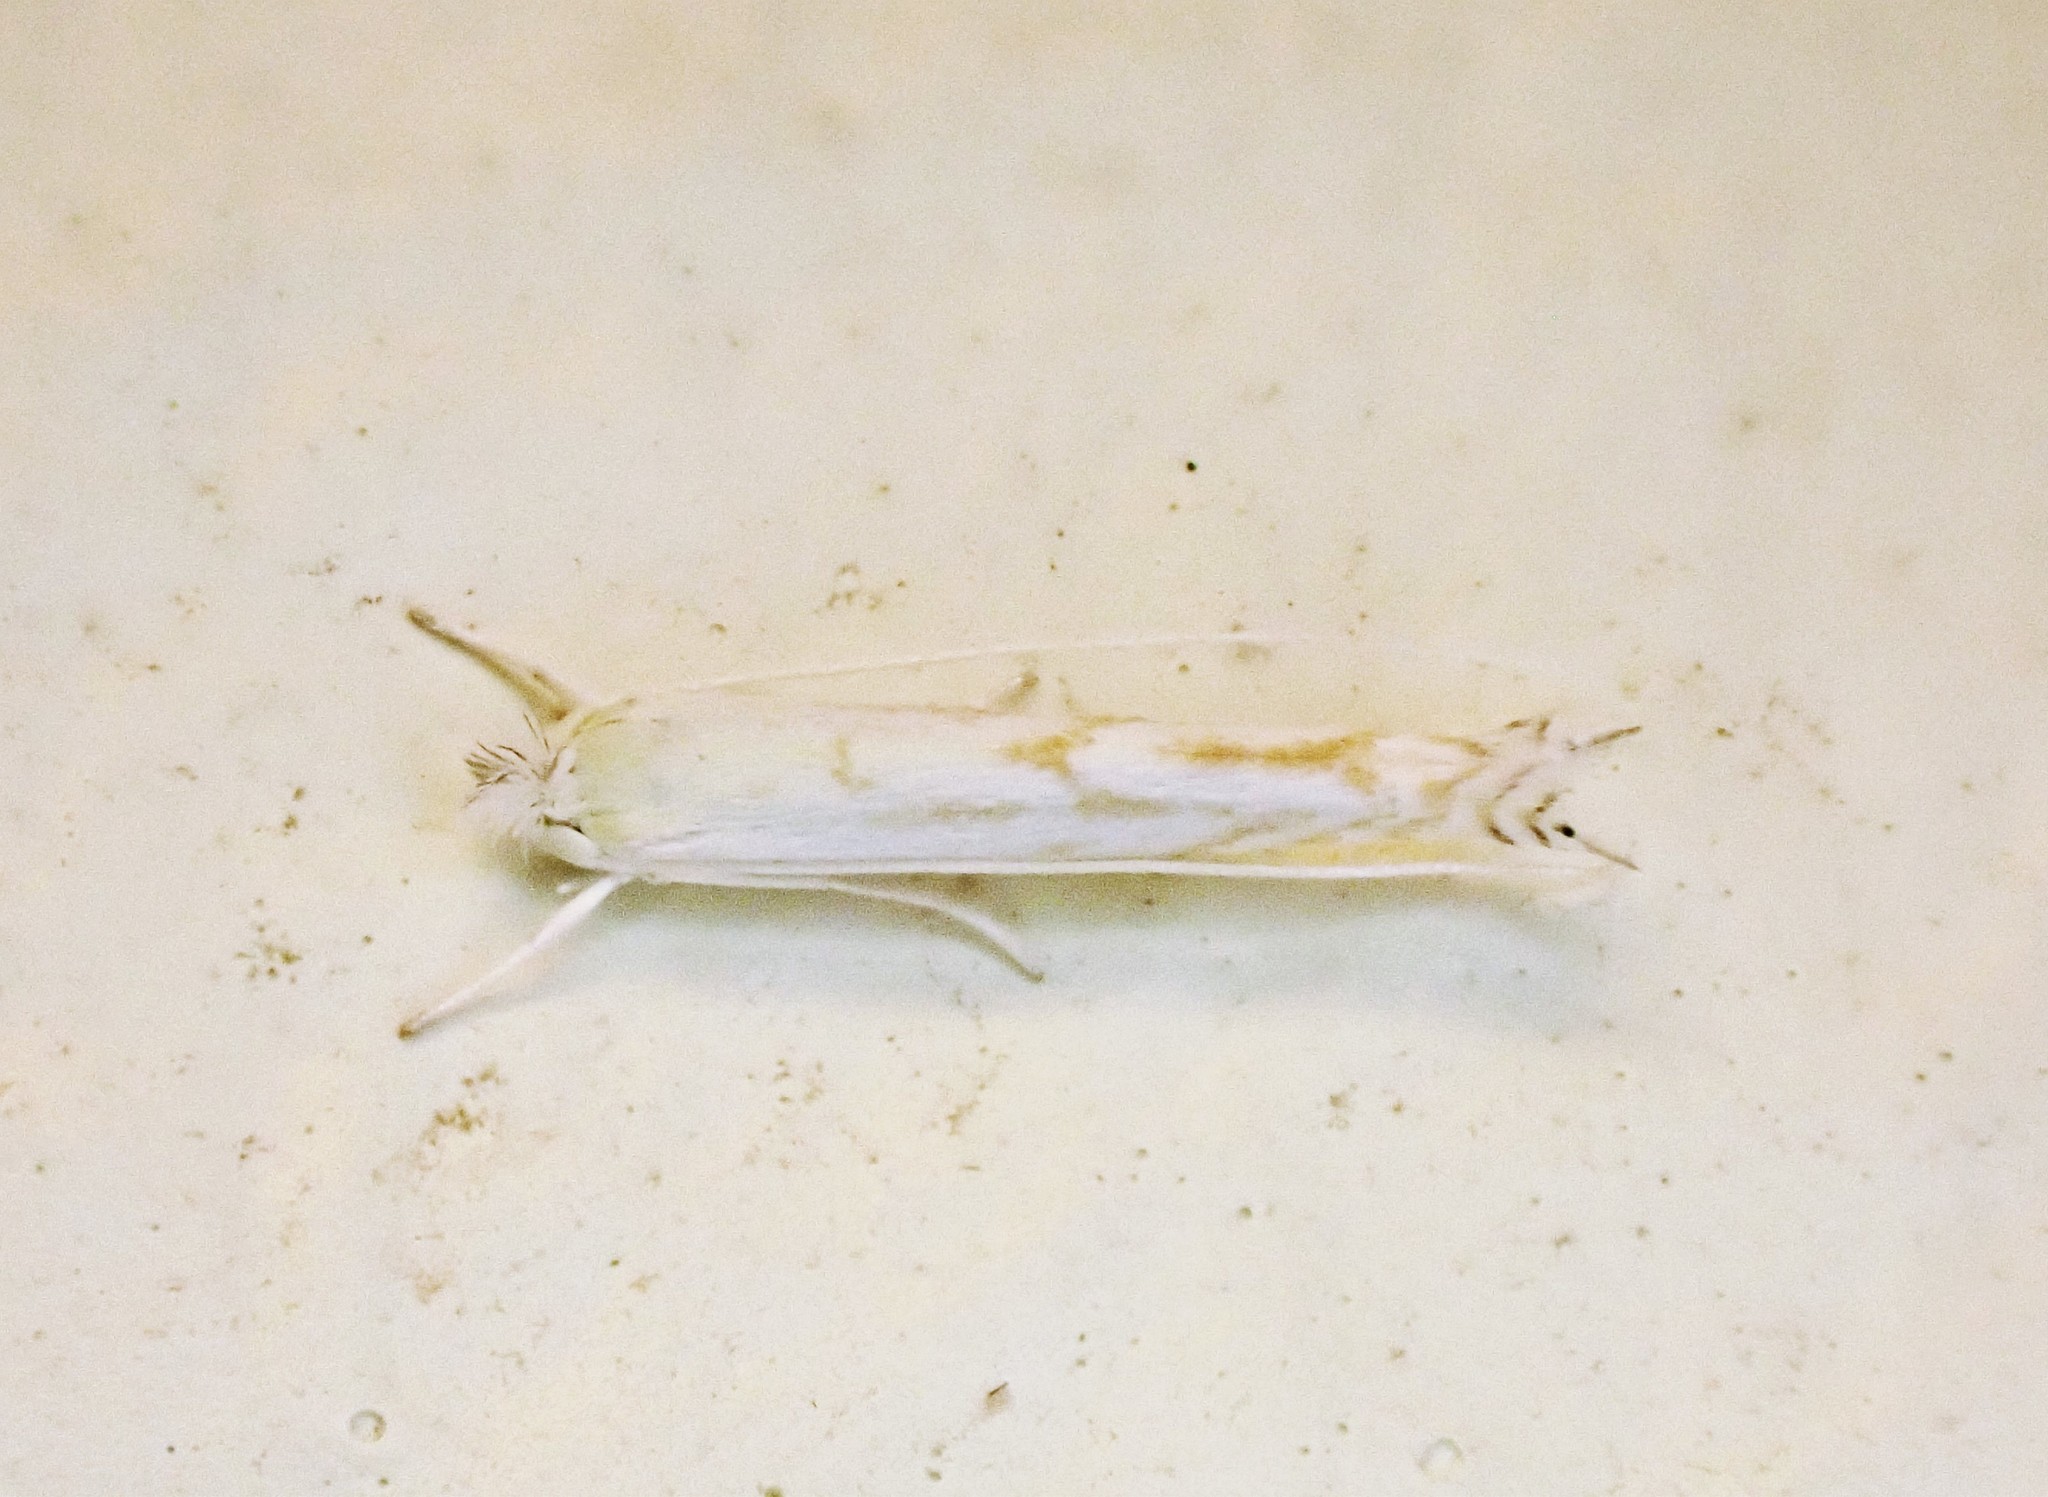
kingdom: Animalia
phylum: Arthropoda
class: Insecta
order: Lepidoptera
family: Lyonetiidae
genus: Stegommata
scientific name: Stegommata sulfuratella
